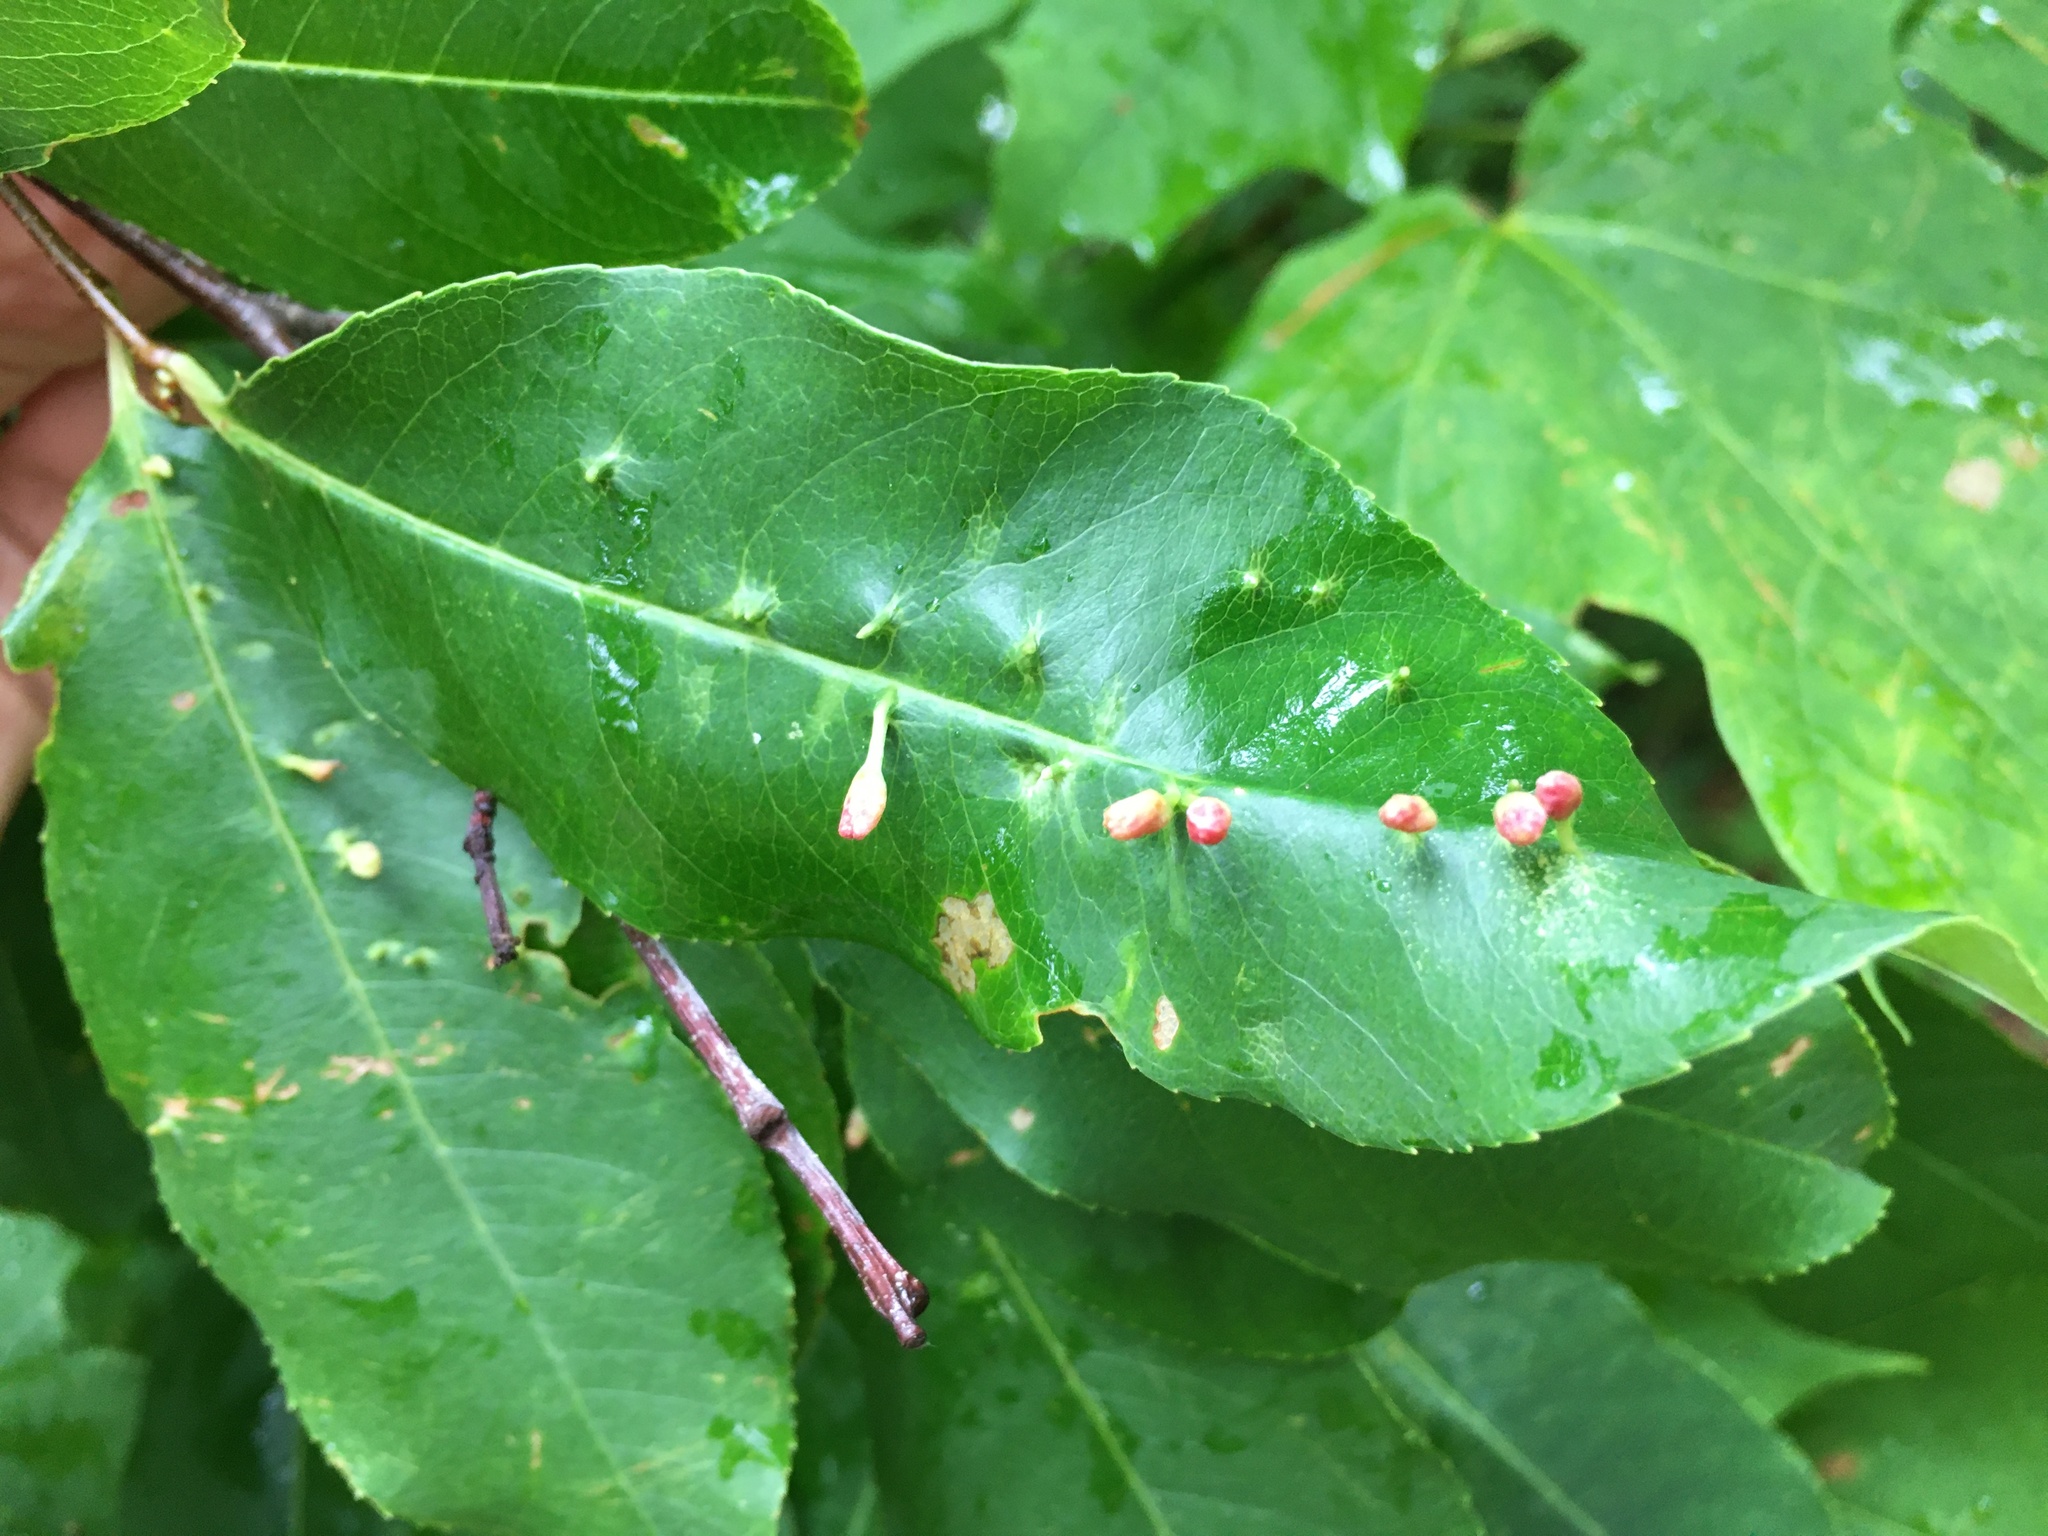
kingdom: Animalia
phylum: Arthropoda
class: Arachnida
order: Trombidiformes
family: Eriophyidae
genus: Eriophyes
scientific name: Eriophyes
